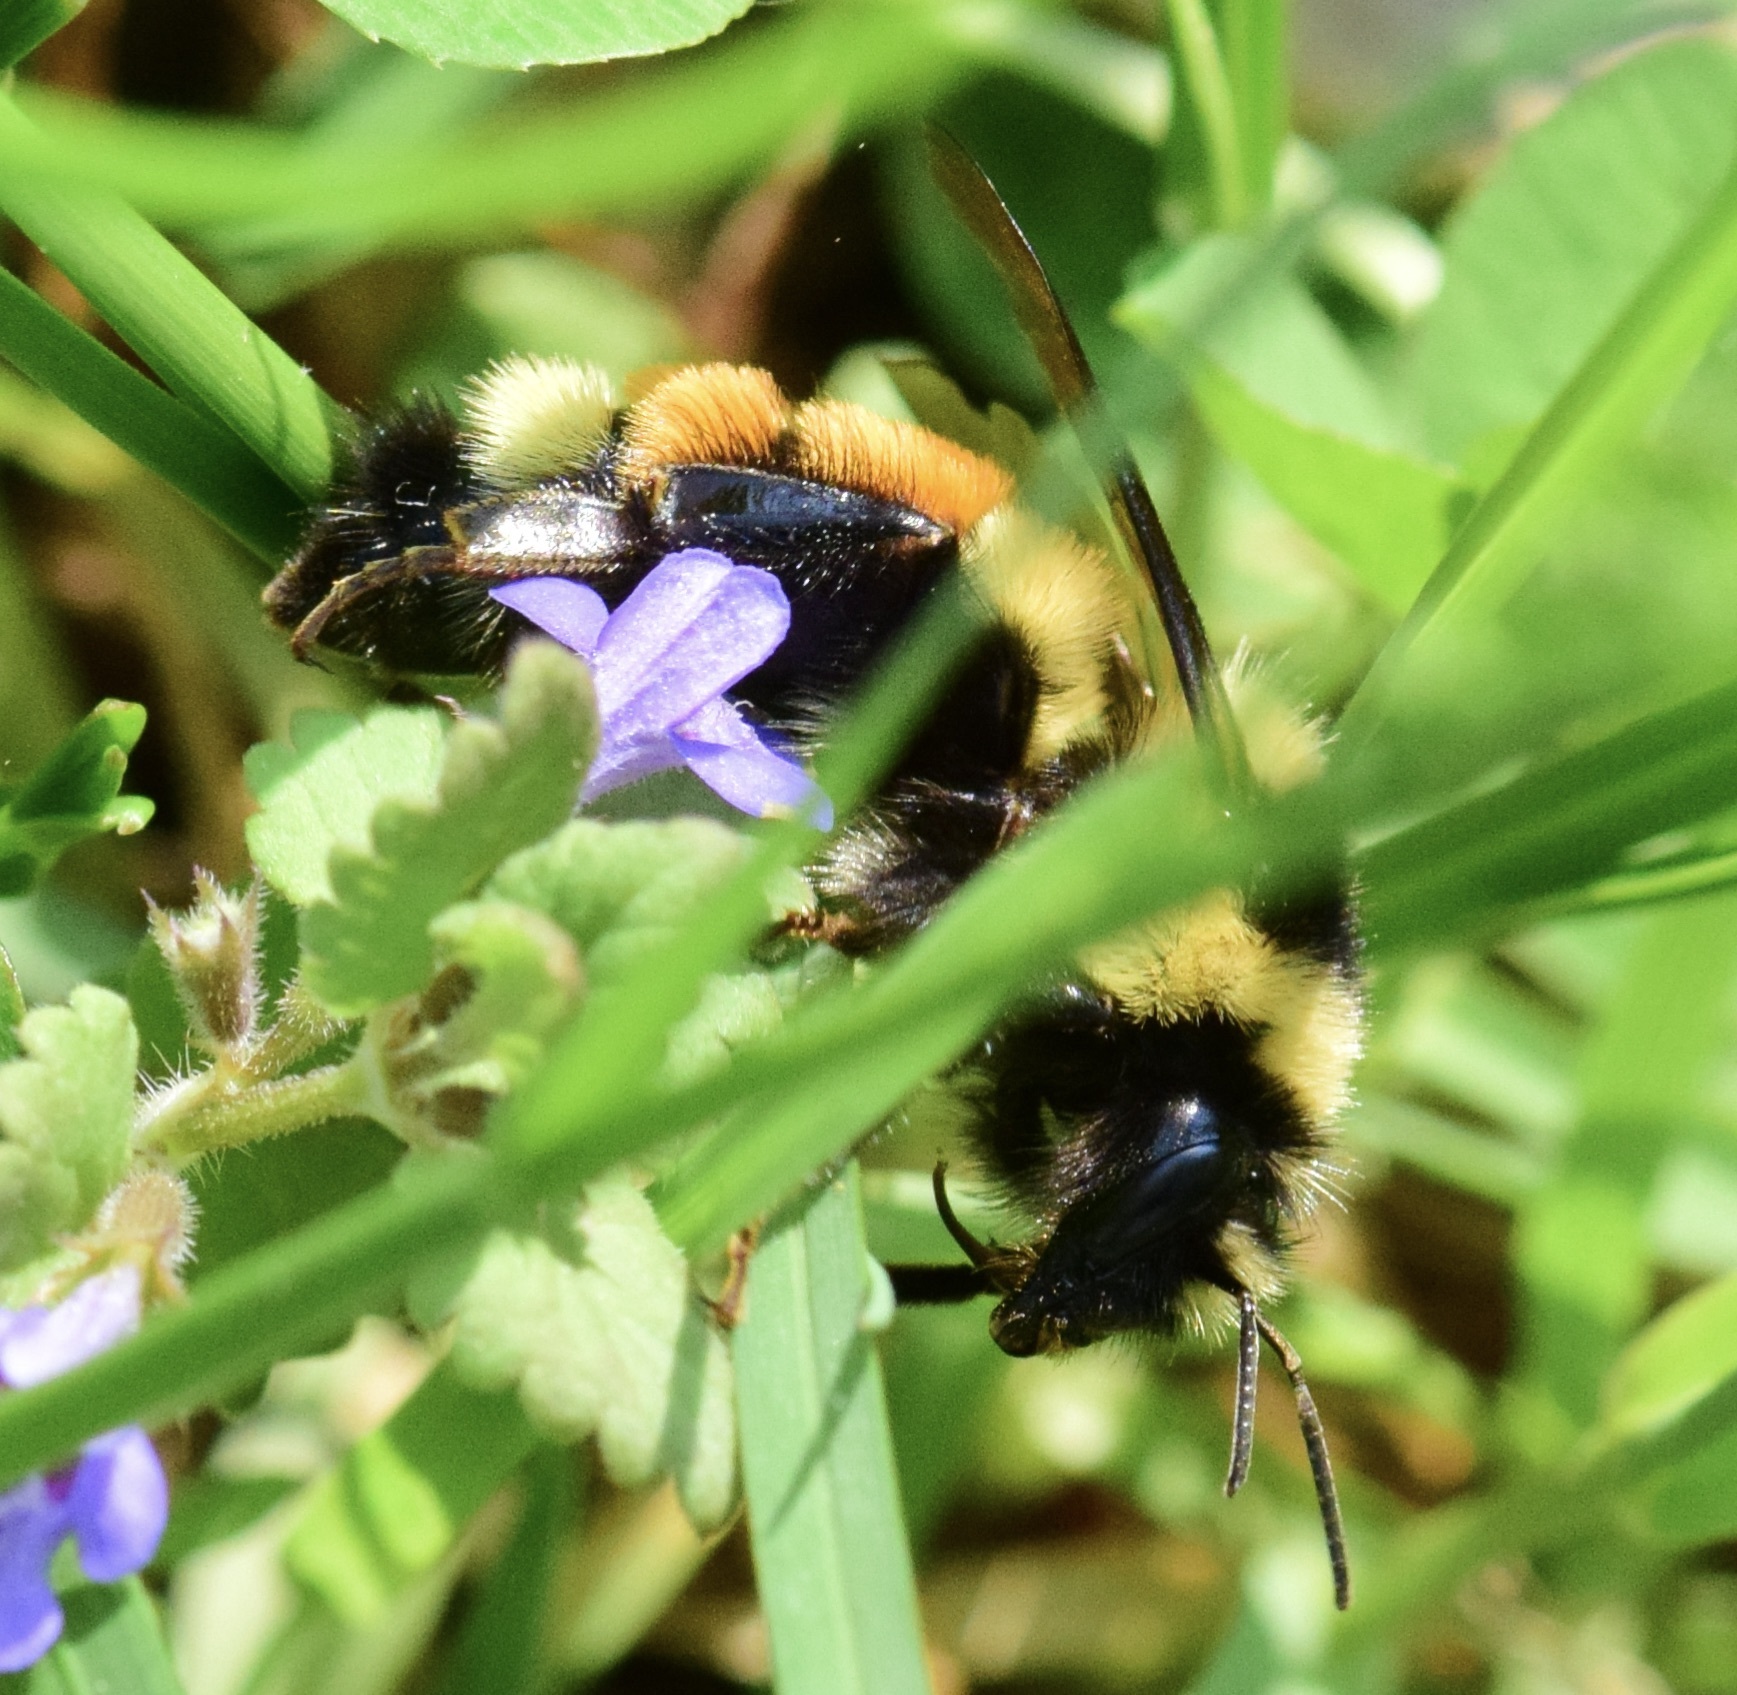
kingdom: Animalia
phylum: Arthropoda
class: Insecta
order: Hymenoptera
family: Apidae
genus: Bombus
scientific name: Bombus ternarius
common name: Tri-colored bumble bee
